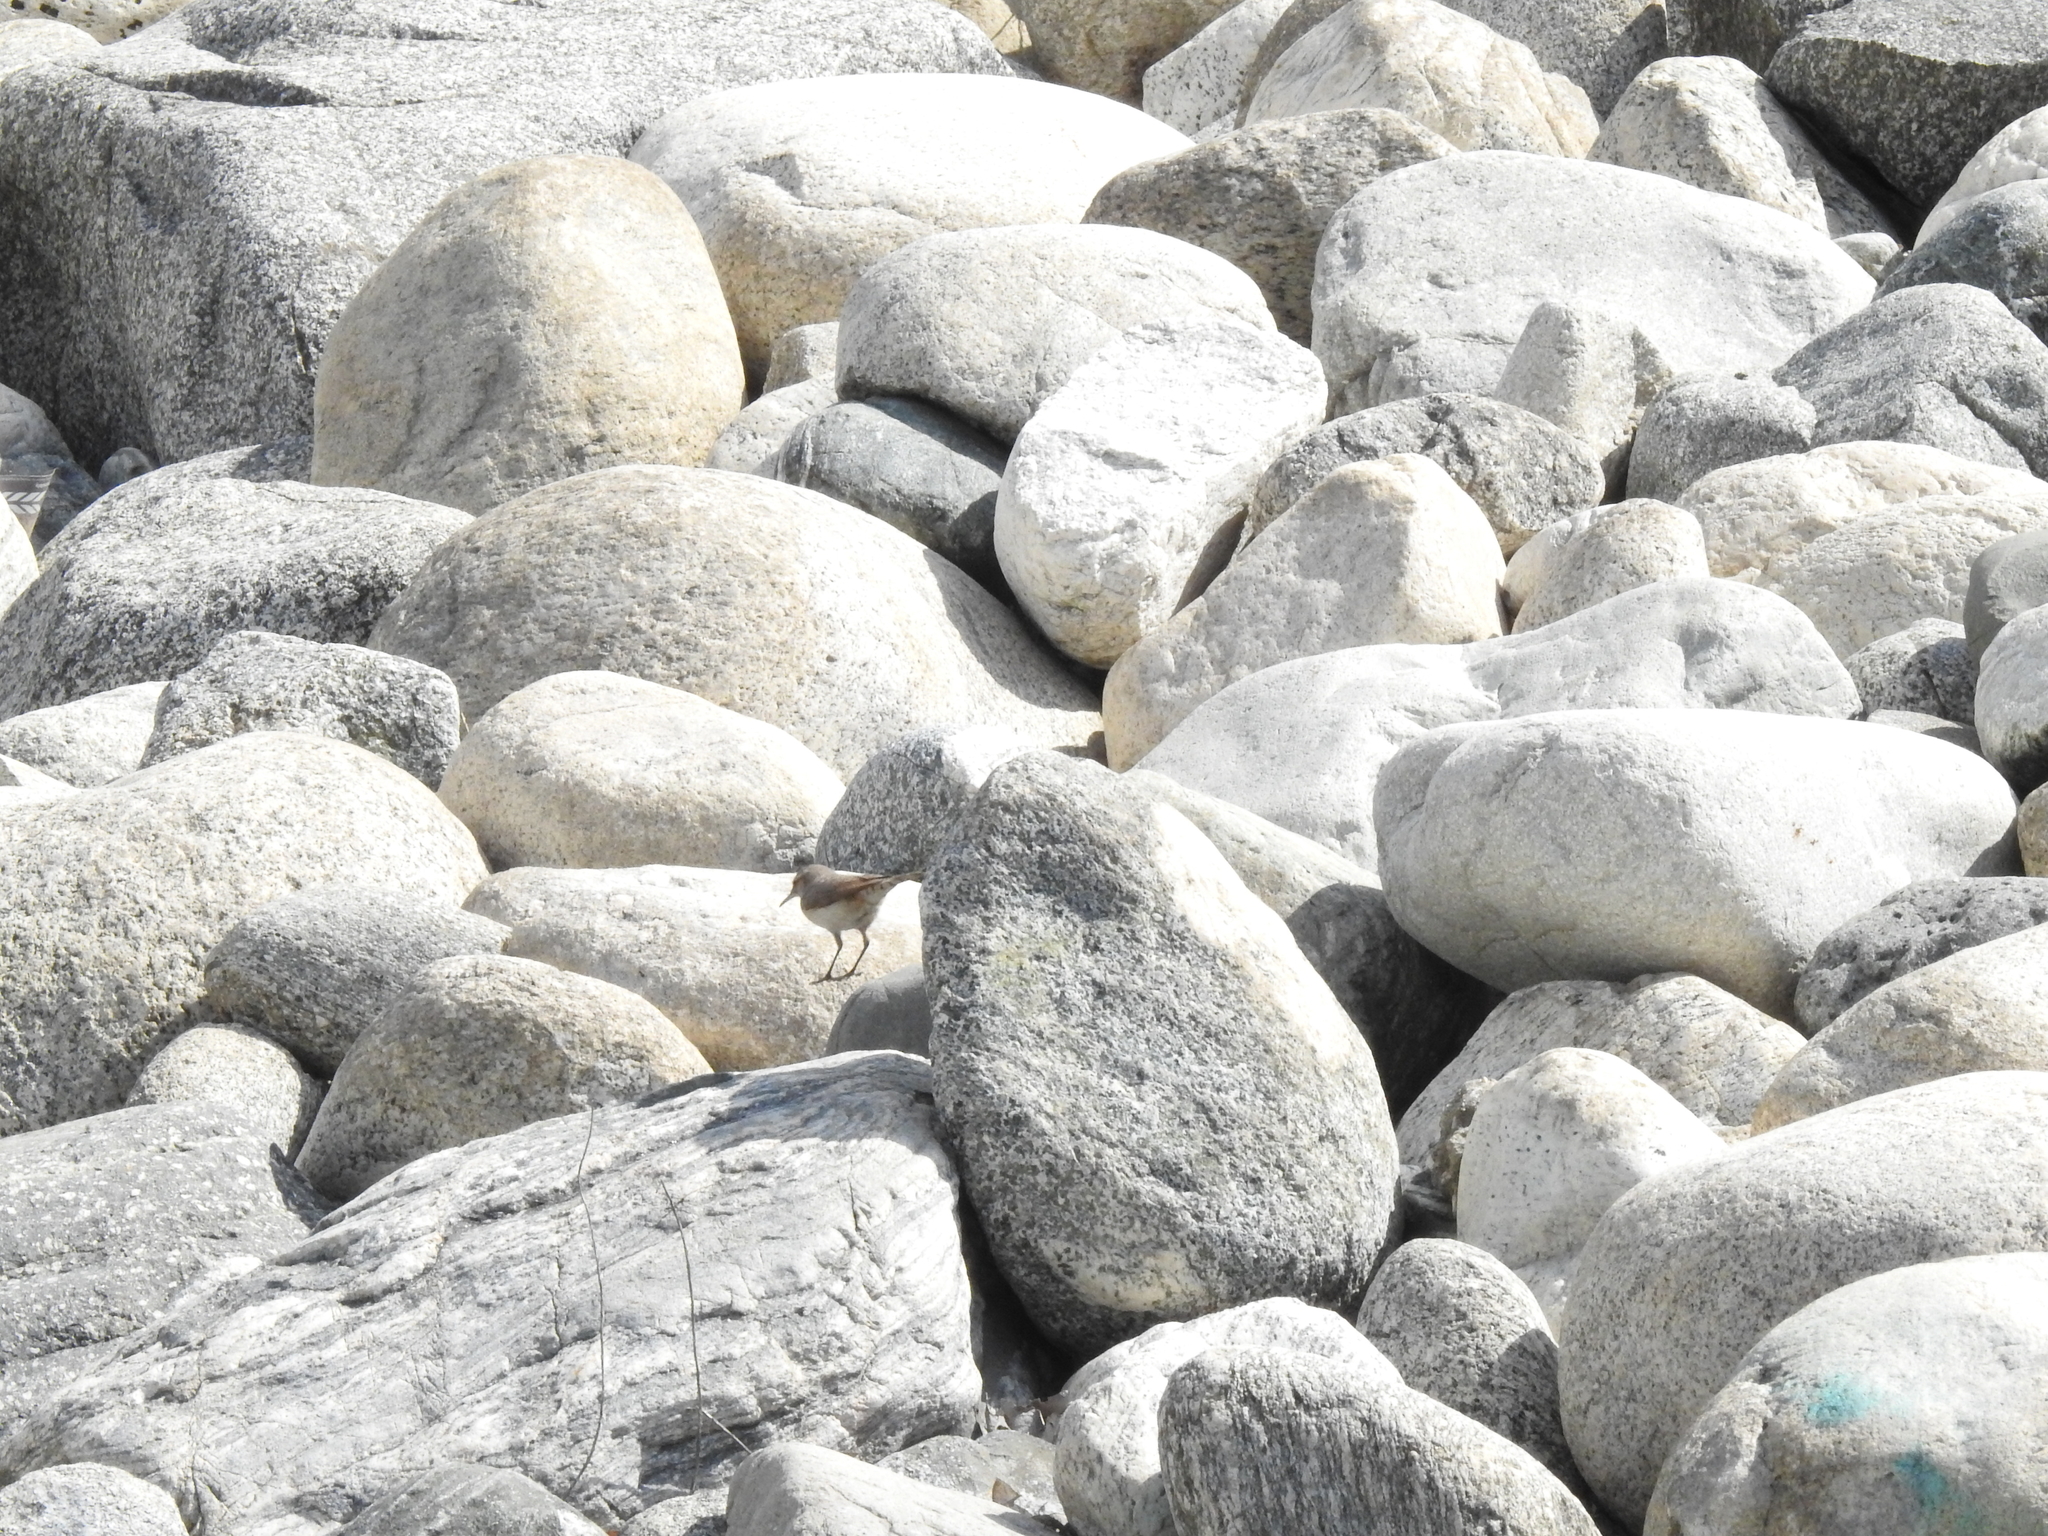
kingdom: Animalia
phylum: Chordata
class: Aves
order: Passeriformes
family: Troglodytidae
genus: Salpinctes
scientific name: Salpinctes obsoletus
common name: Rock wren
